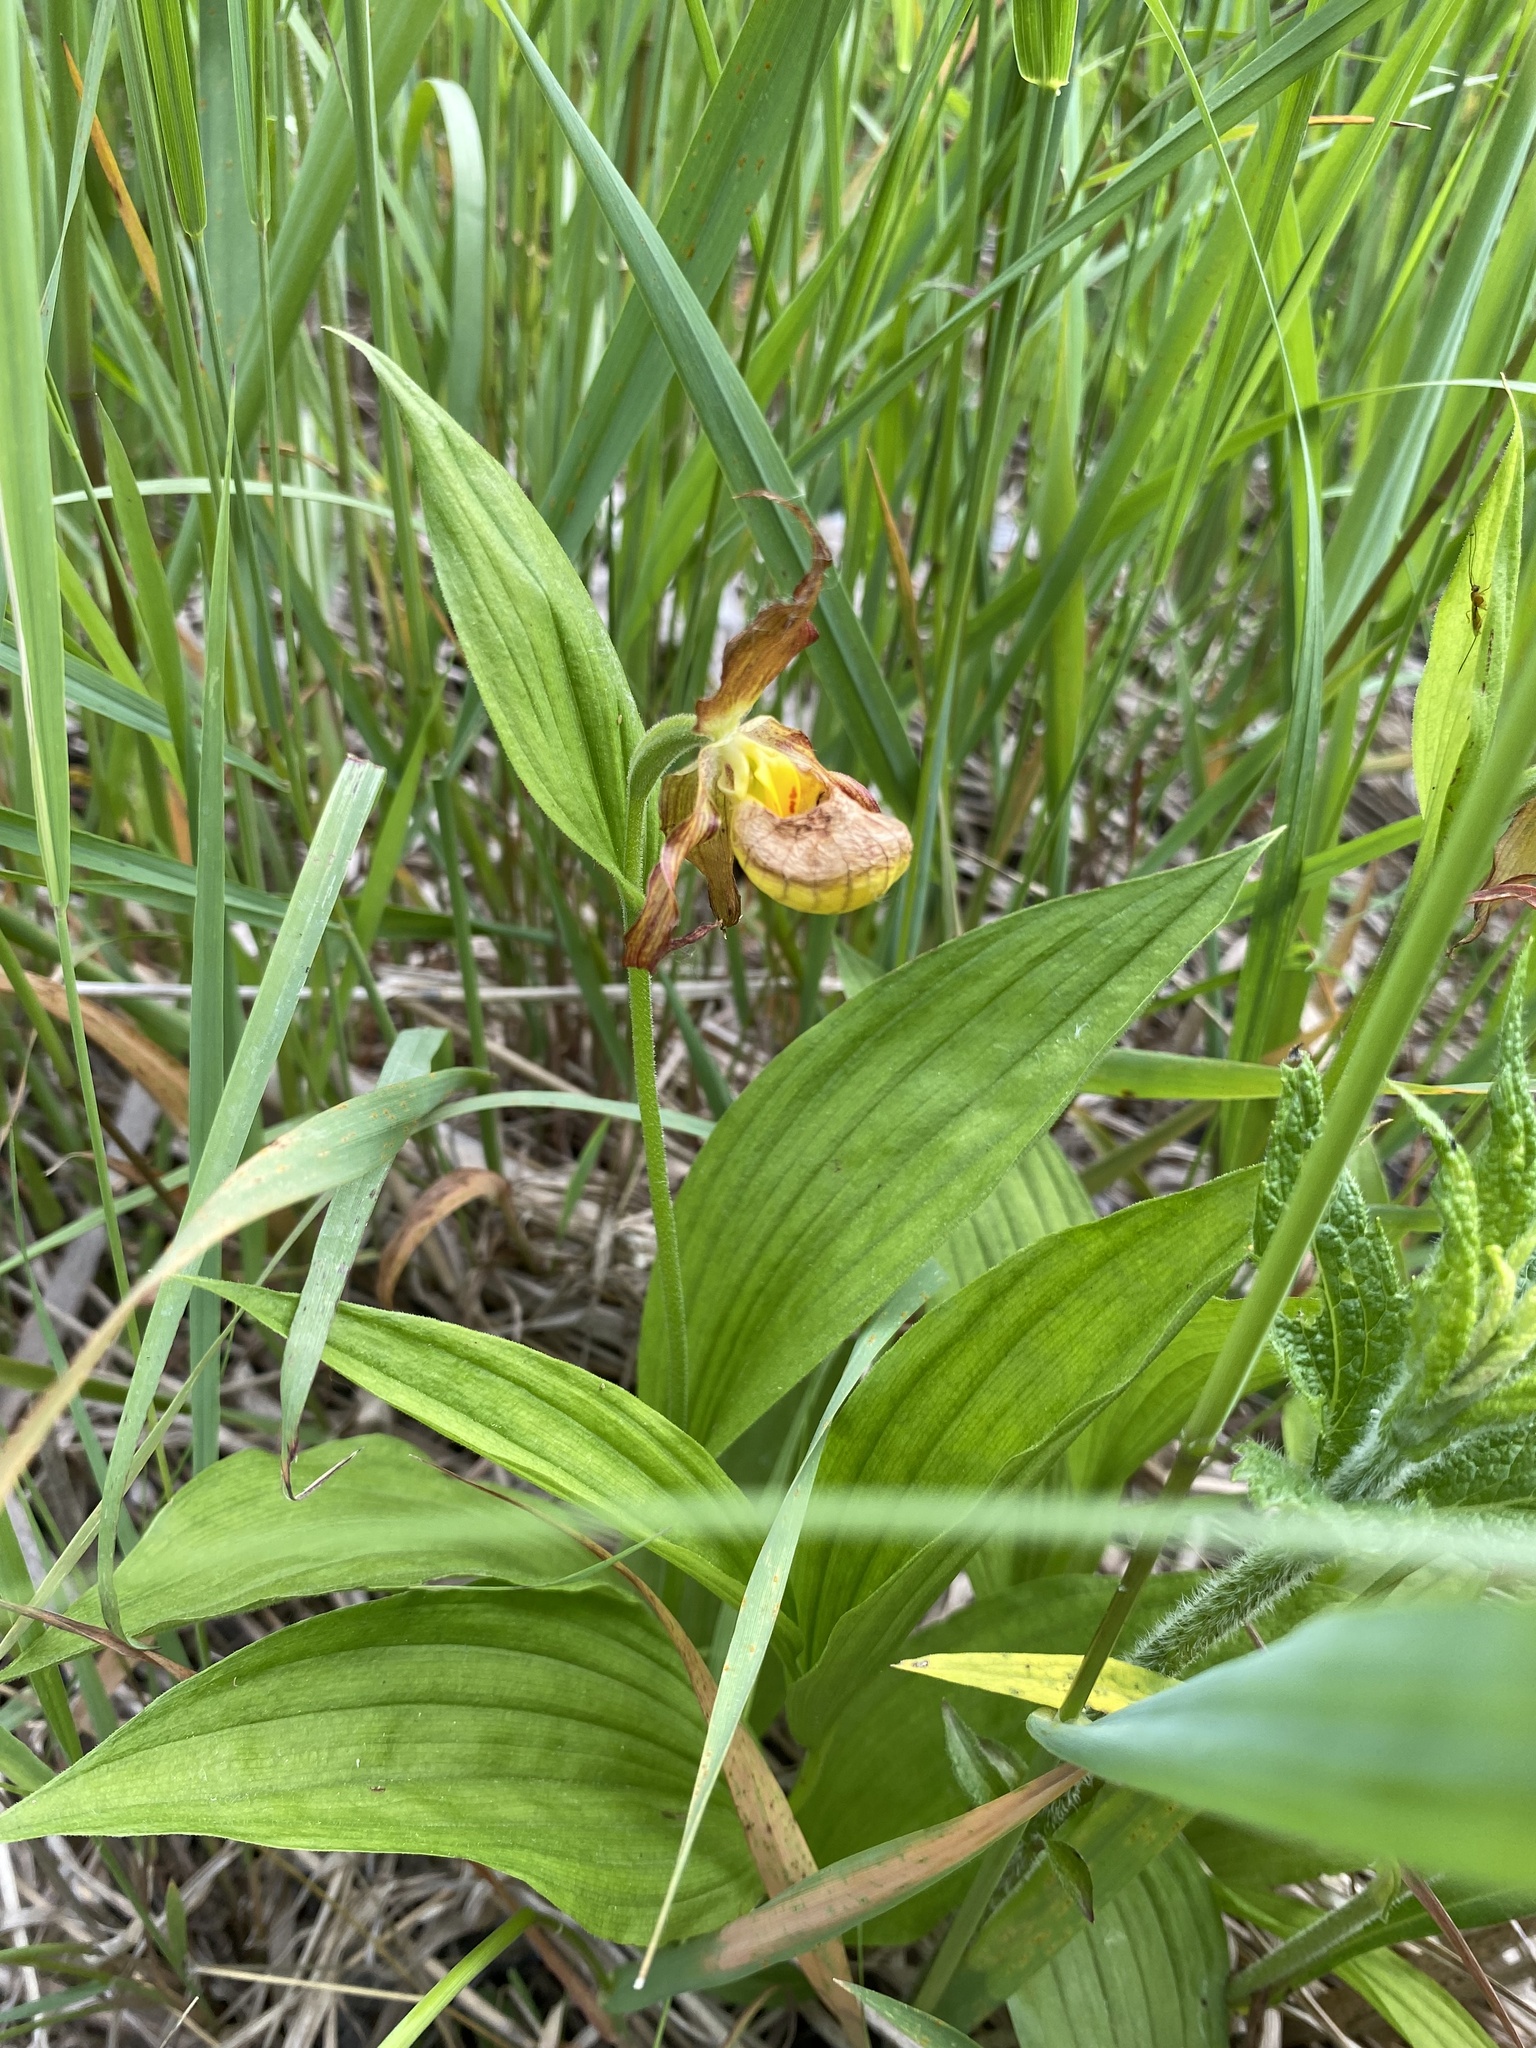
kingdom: Plantae
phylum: Tracheophyta
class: Liliopsida
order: Asparagales
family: Orchidaceae
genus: Cypripedium
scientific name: Cypripedium parviflorum
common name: American yellow lady's-slipper
